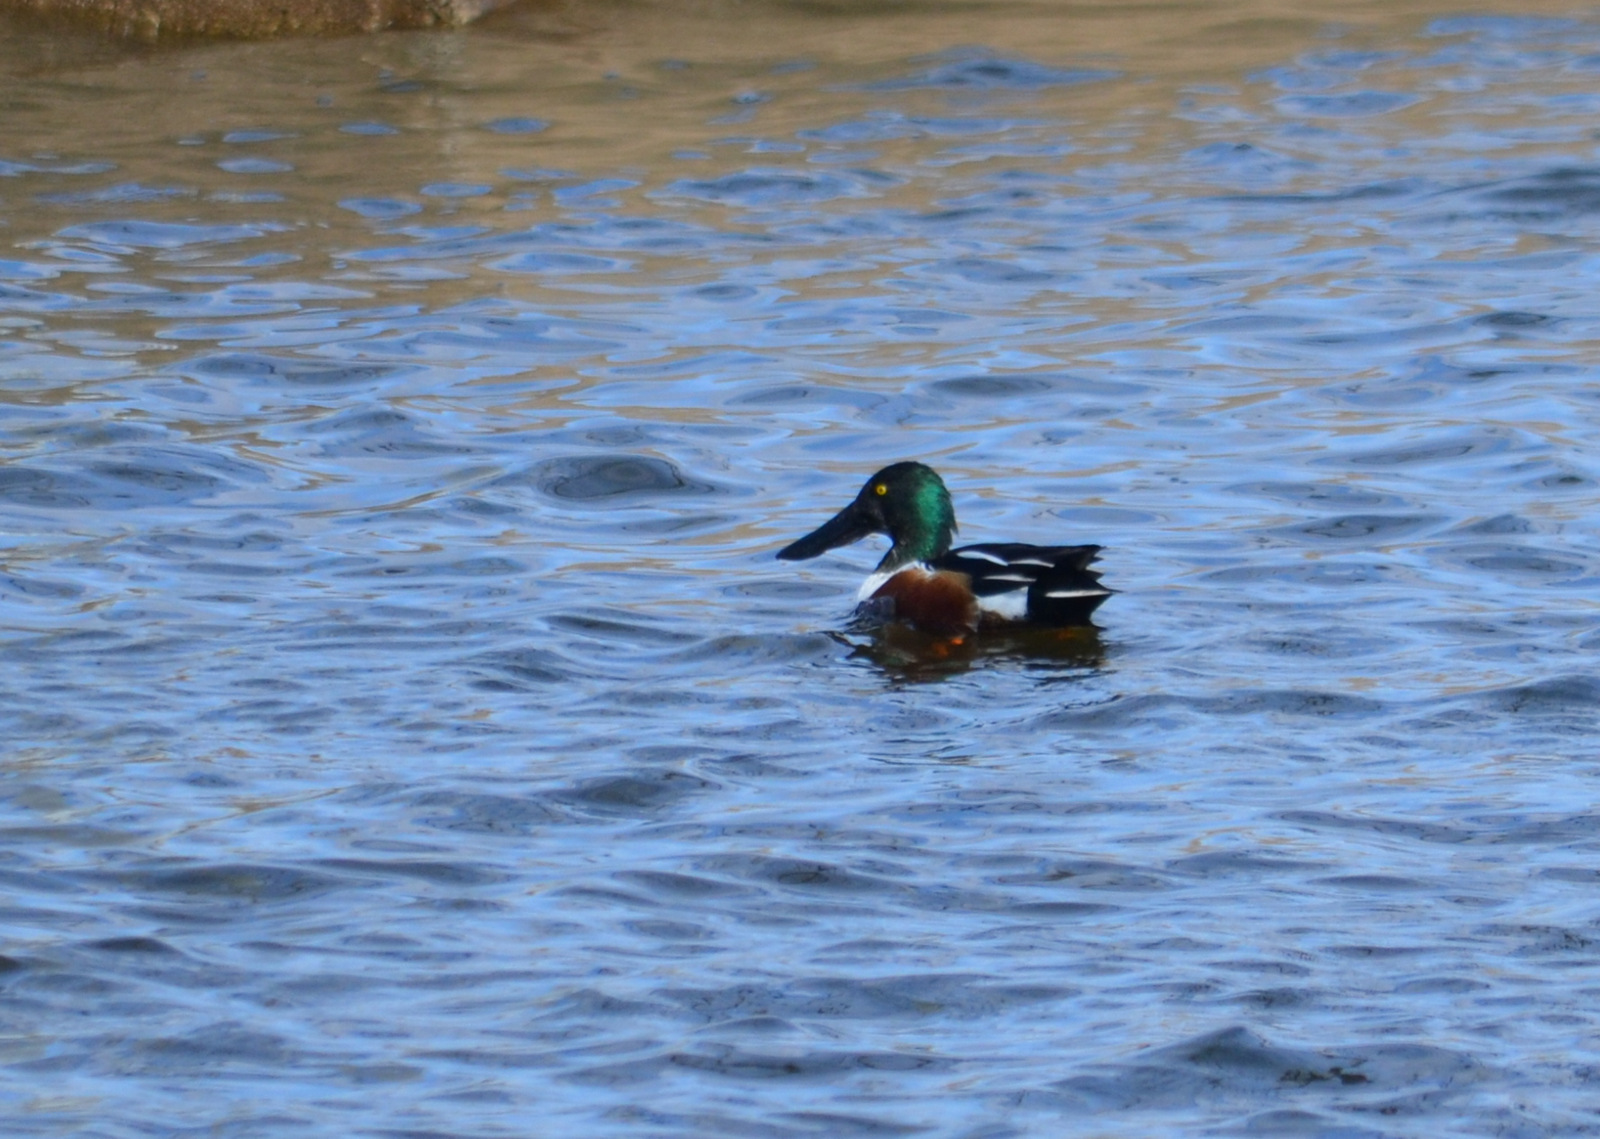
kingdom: Animalia
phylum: Chordata
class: Aves
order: Anseriformes
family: Anatidae
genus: Spatula
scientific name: Spatula clypeata
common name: Northern shoveler
